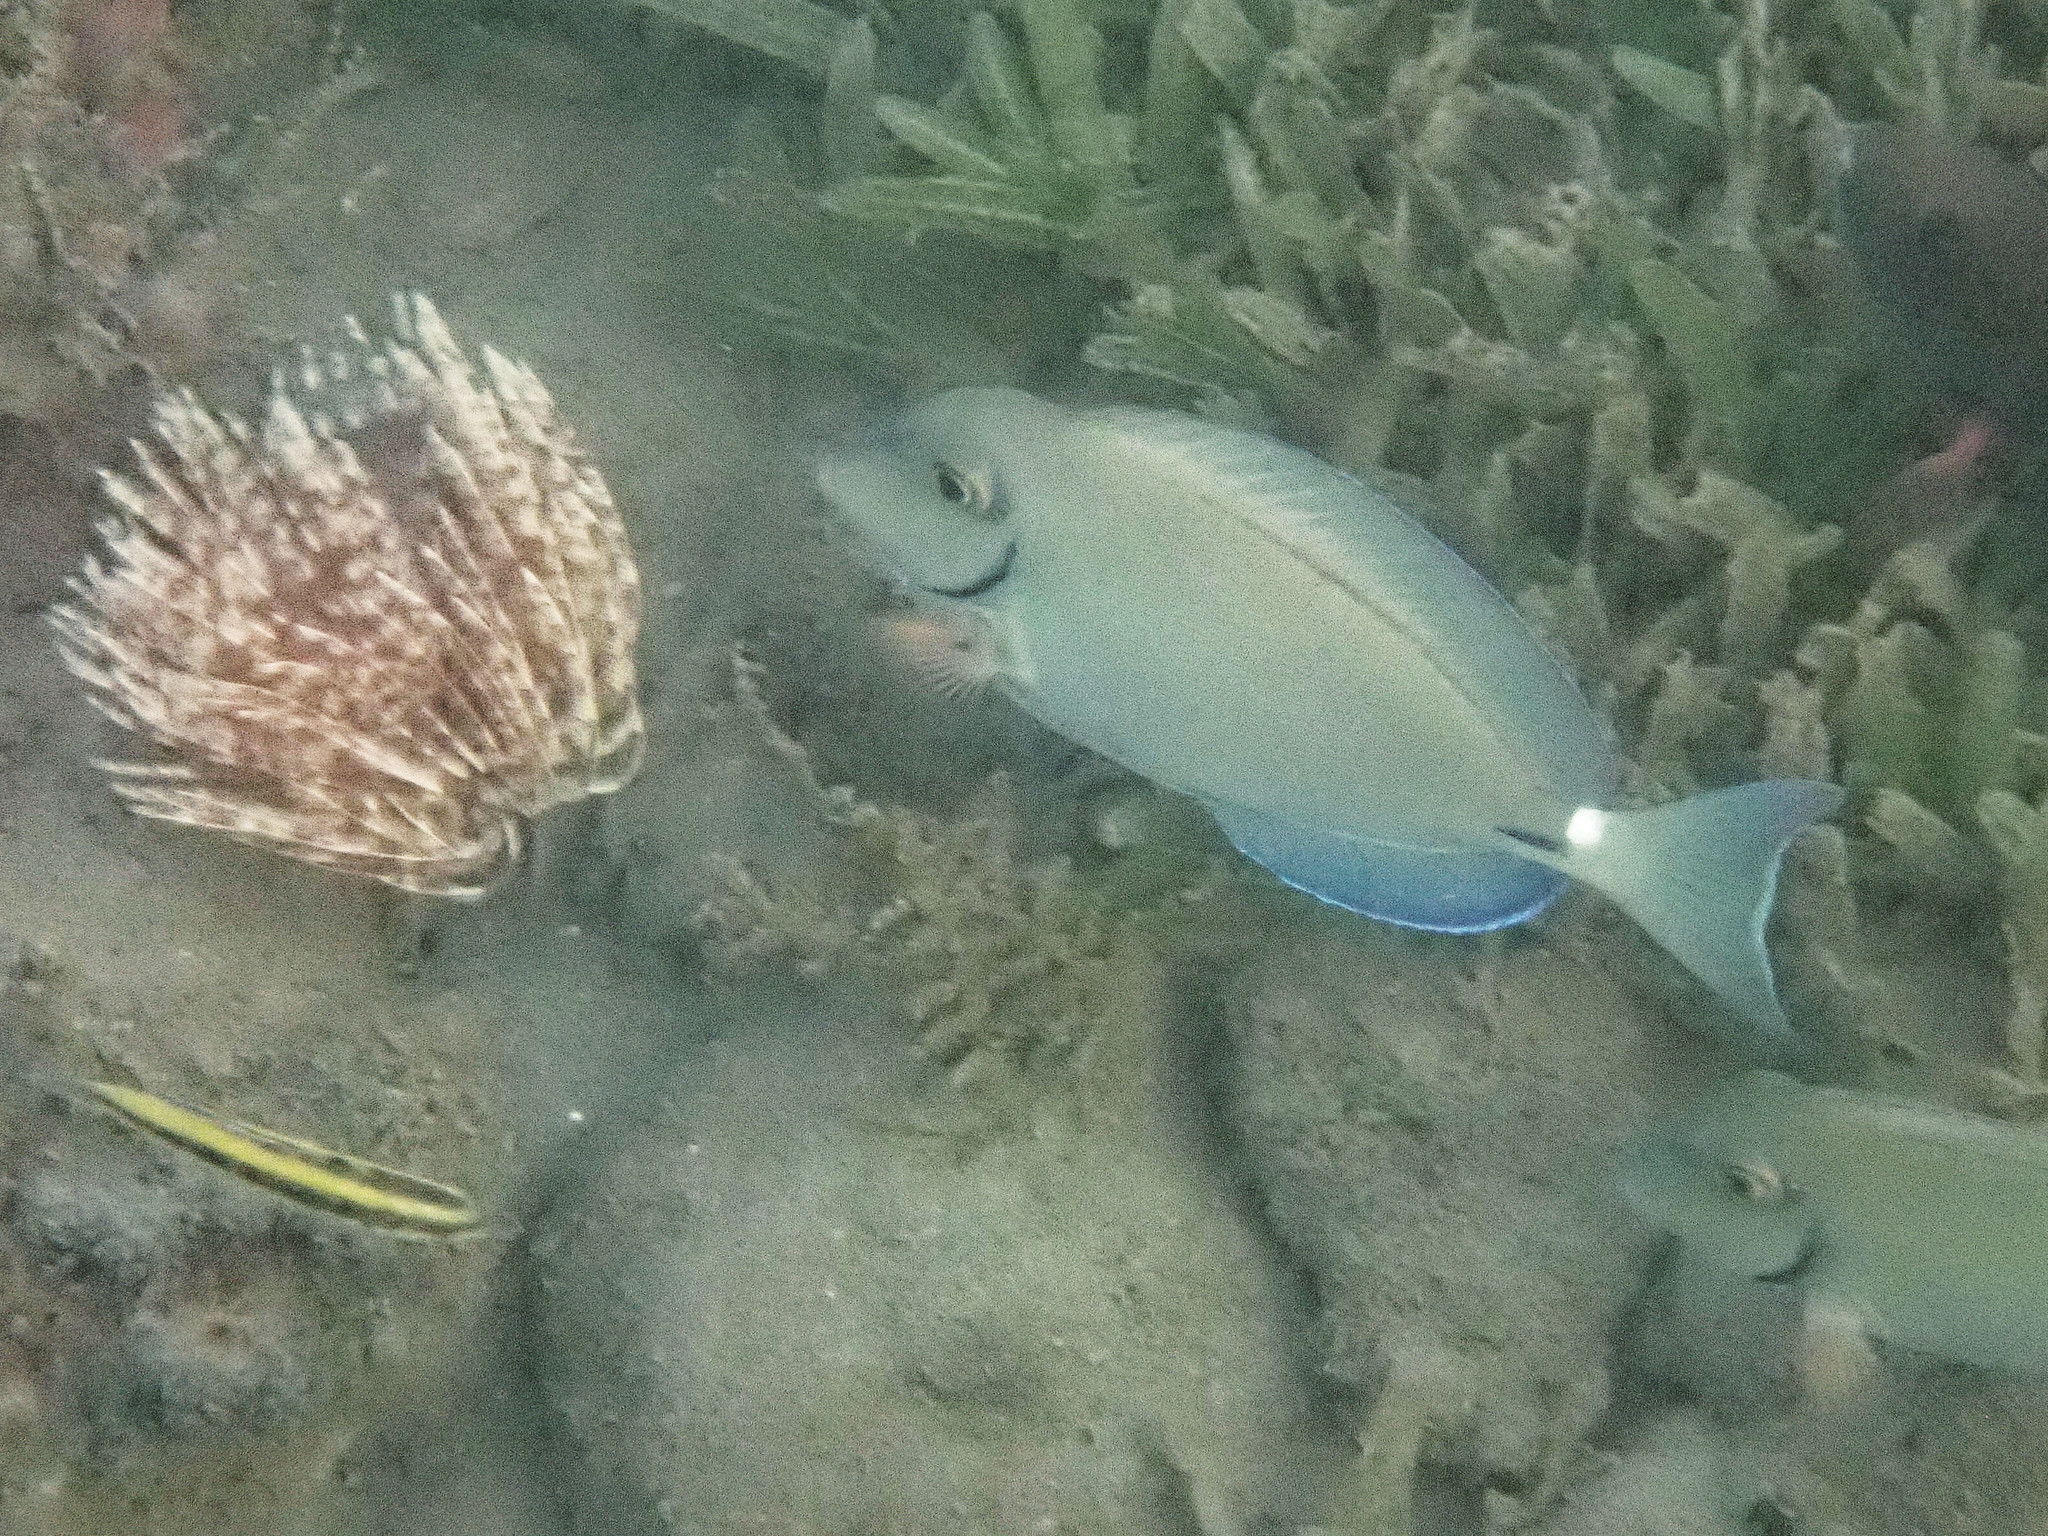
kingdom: Animalia
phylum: Chordata
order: Perciformes
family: Acanthuridae
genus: Acanthurus
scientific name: Acanthurus bahianus
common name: Ocean surgeon
